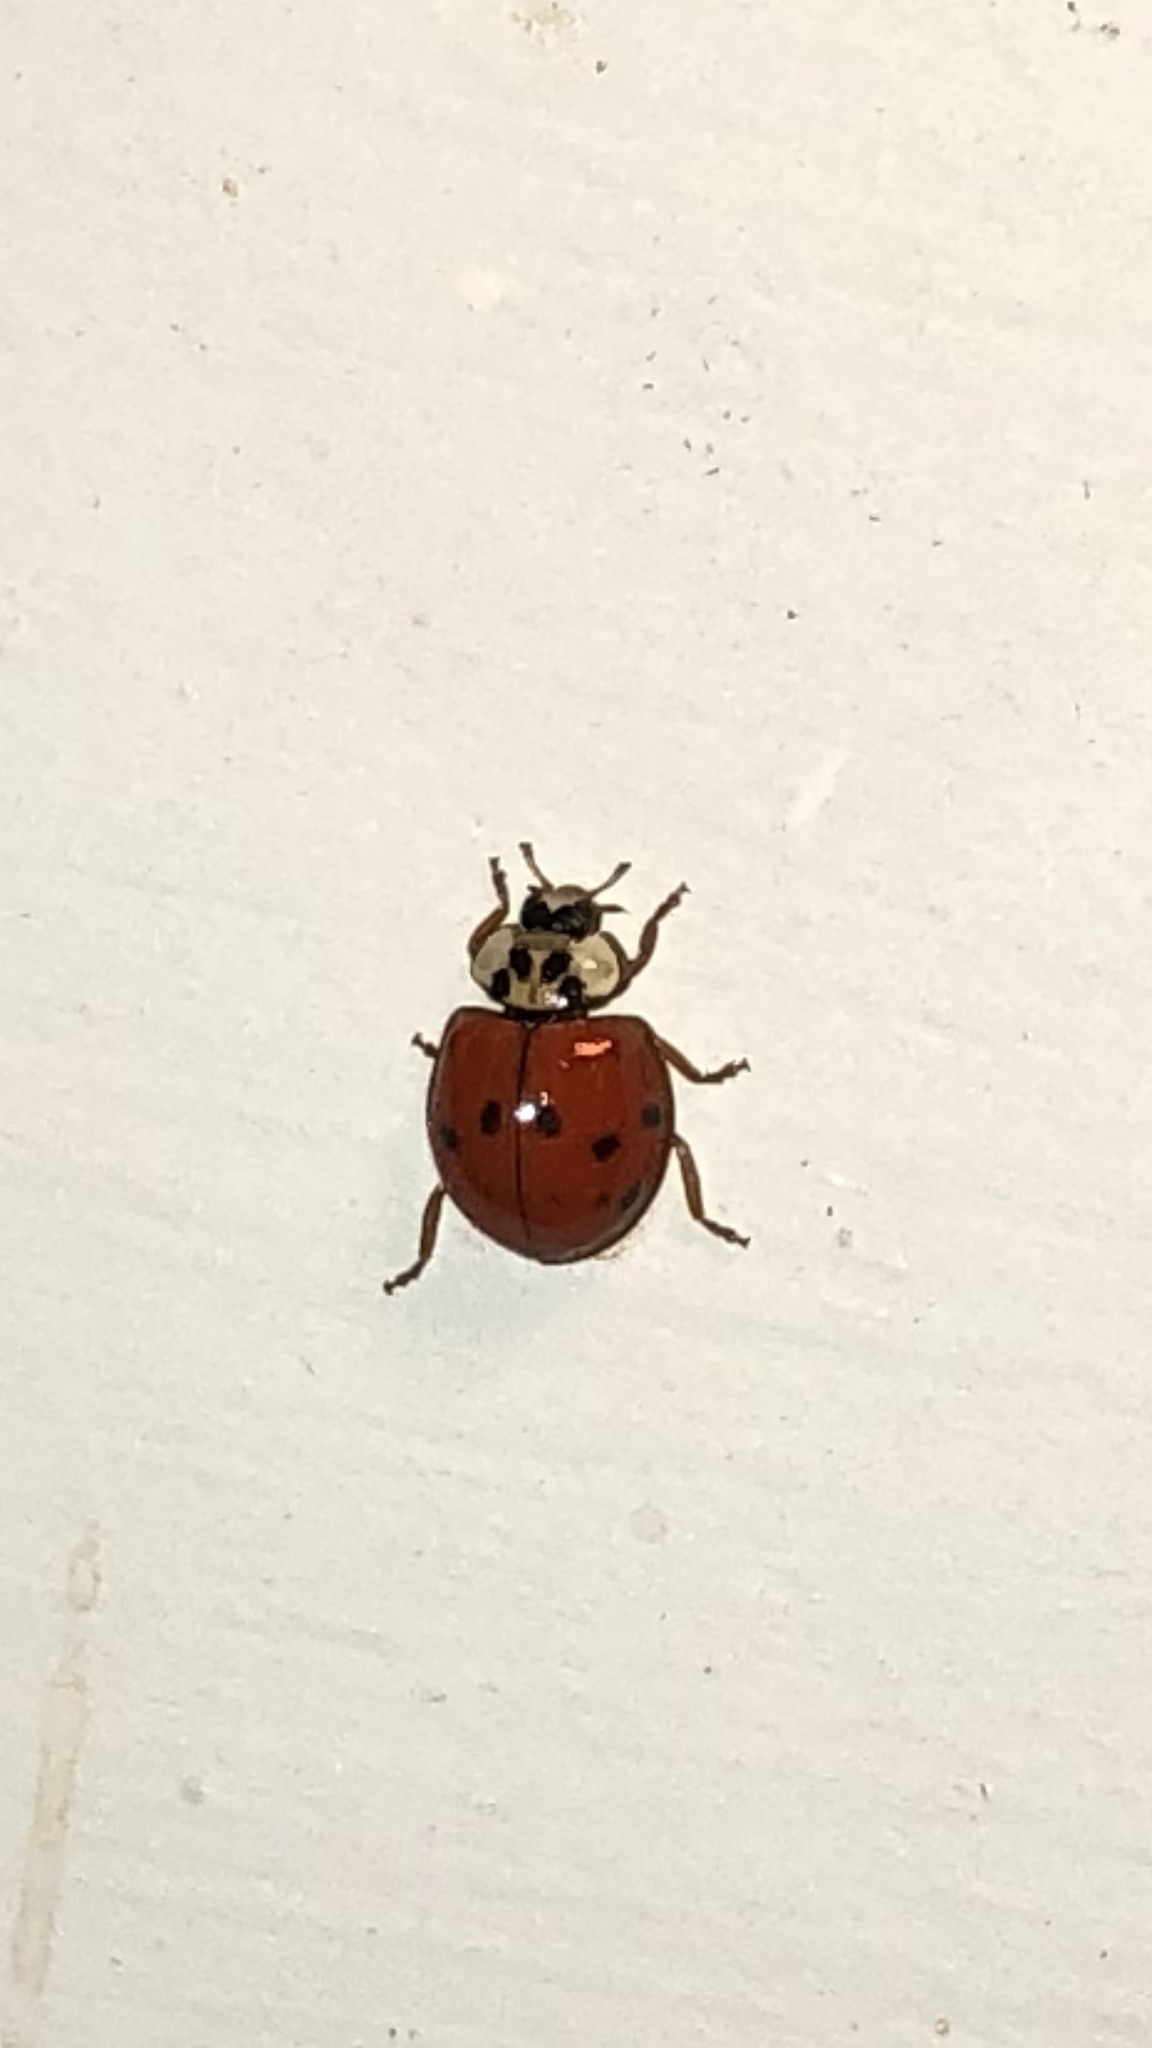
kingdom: Animalia
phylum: Arthropoda
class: Insecta
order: Coleoptera
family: Coccinellidae
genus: Harmonia
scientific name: Harmonia axyridis
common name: Harlequin ladybird
